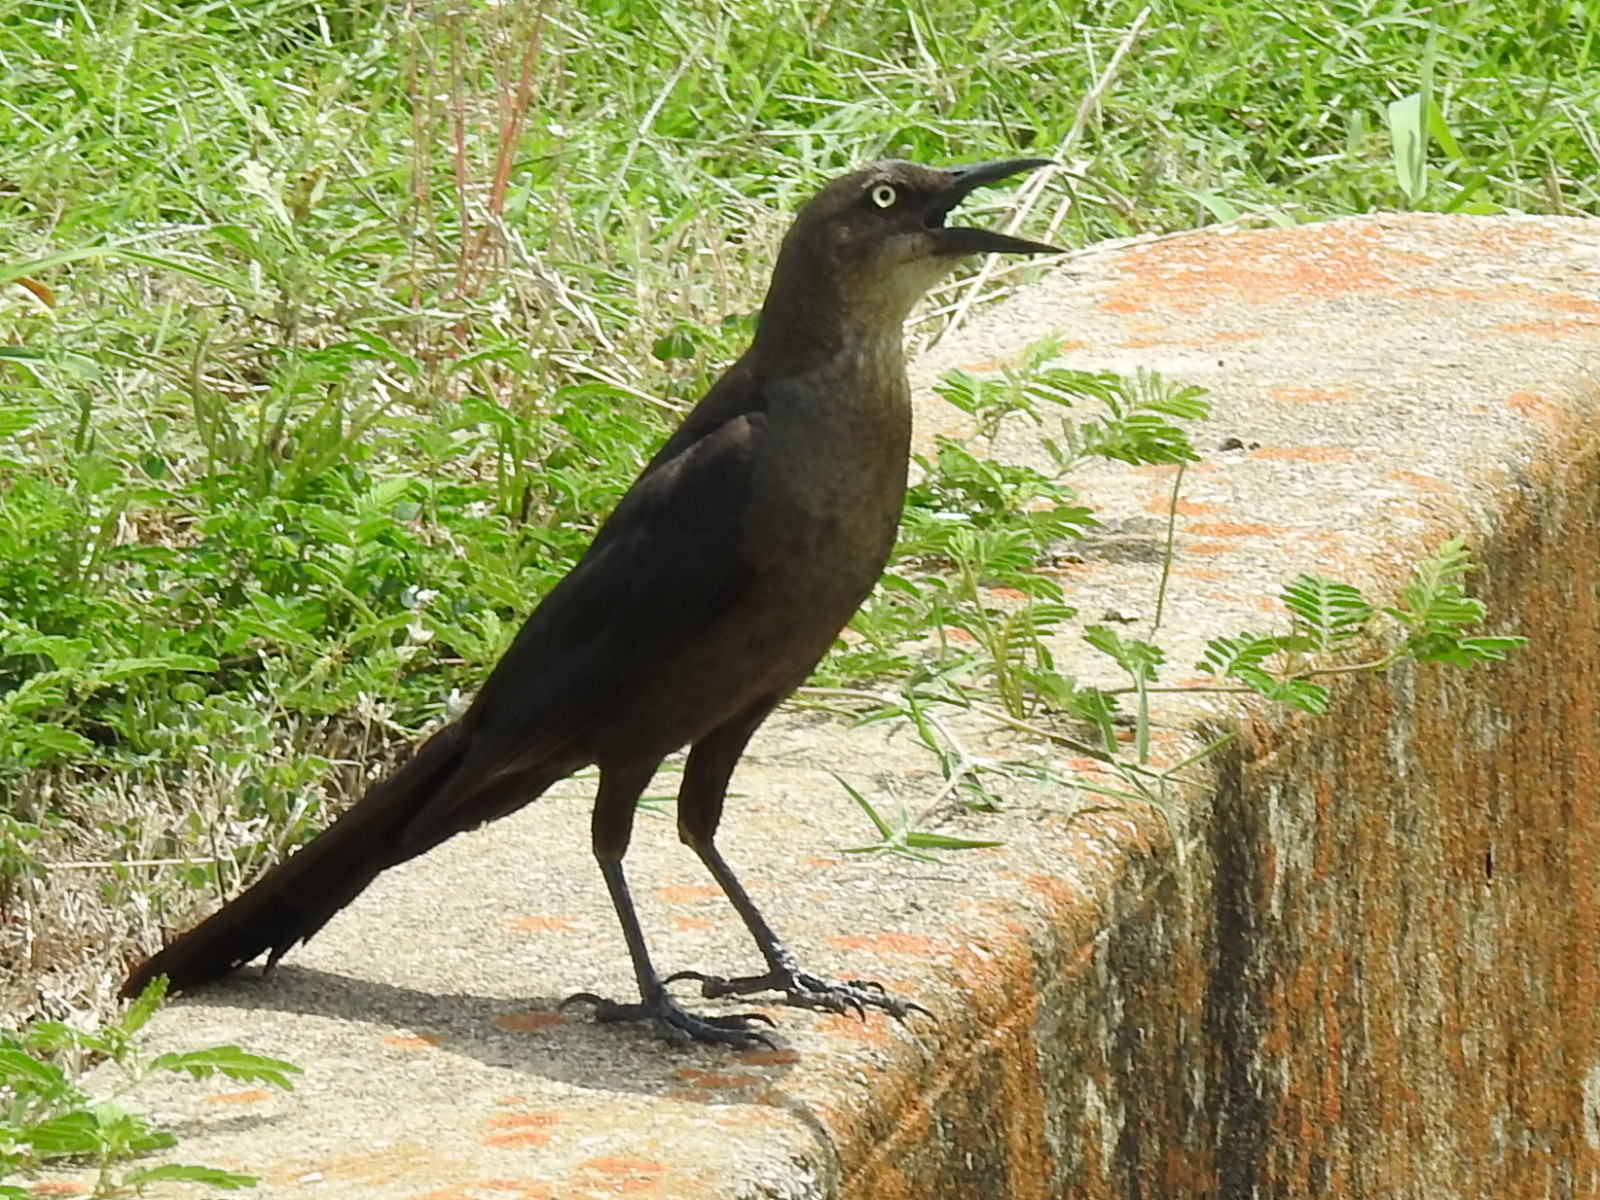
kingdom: Animalia
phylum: Chordata
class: Aves
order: Passeriformes
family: Icteridae
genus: Quiscalus
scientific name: Quiscalus mexicanus
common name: Great-tailed grackle
